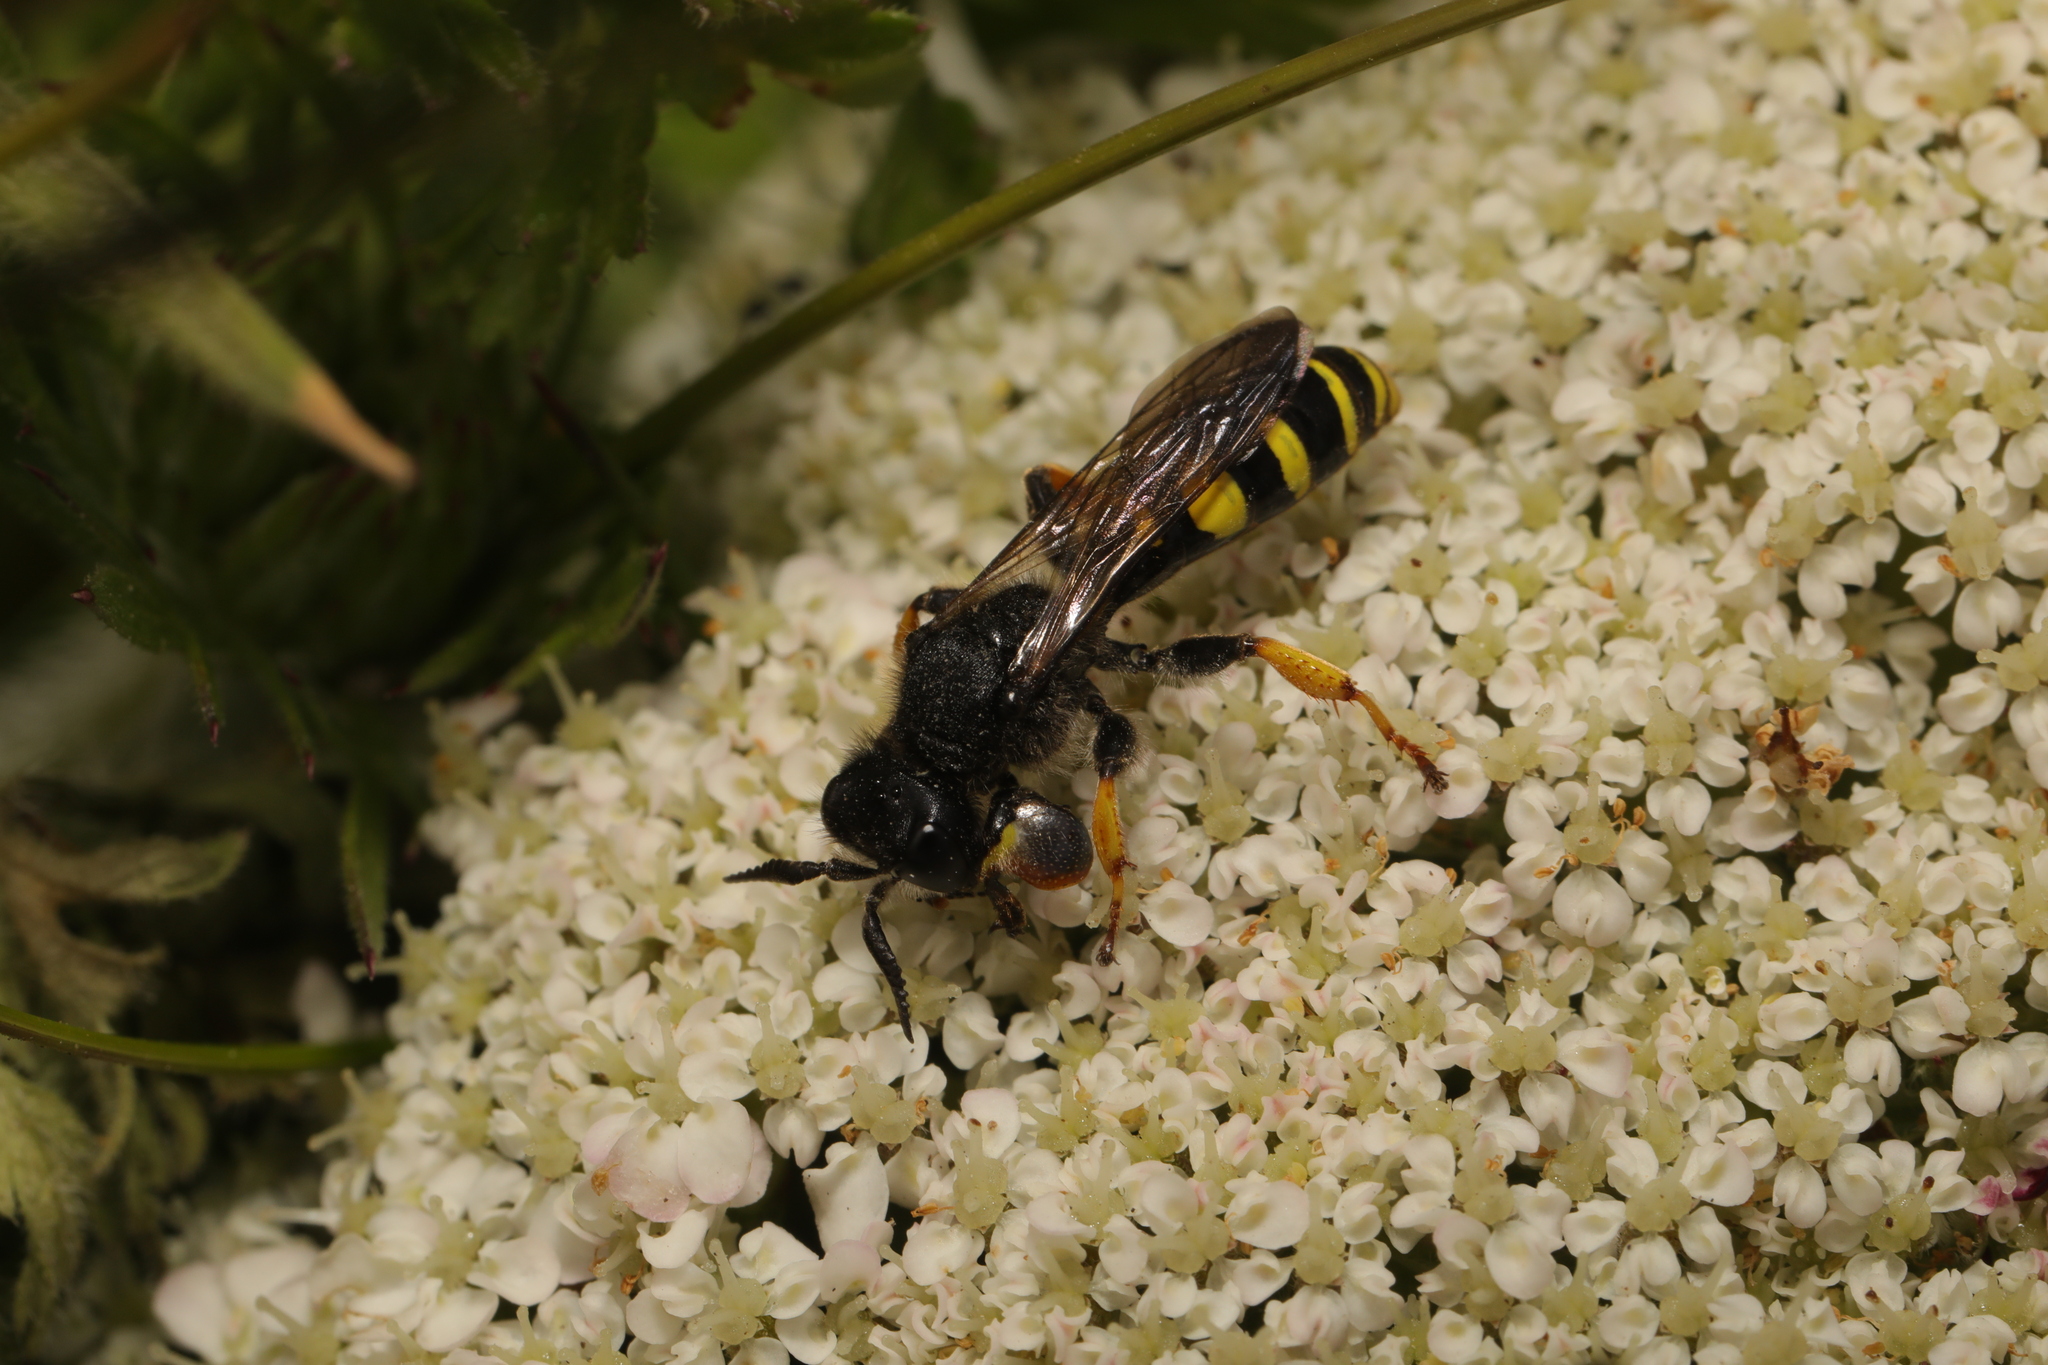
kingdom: Animalia
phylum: Arthropoda
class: Insecta
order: Hymenoptera
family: Crabronidae
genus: Crabro
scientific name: Crabro cribrarius
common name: Slender bodied digger wasp
